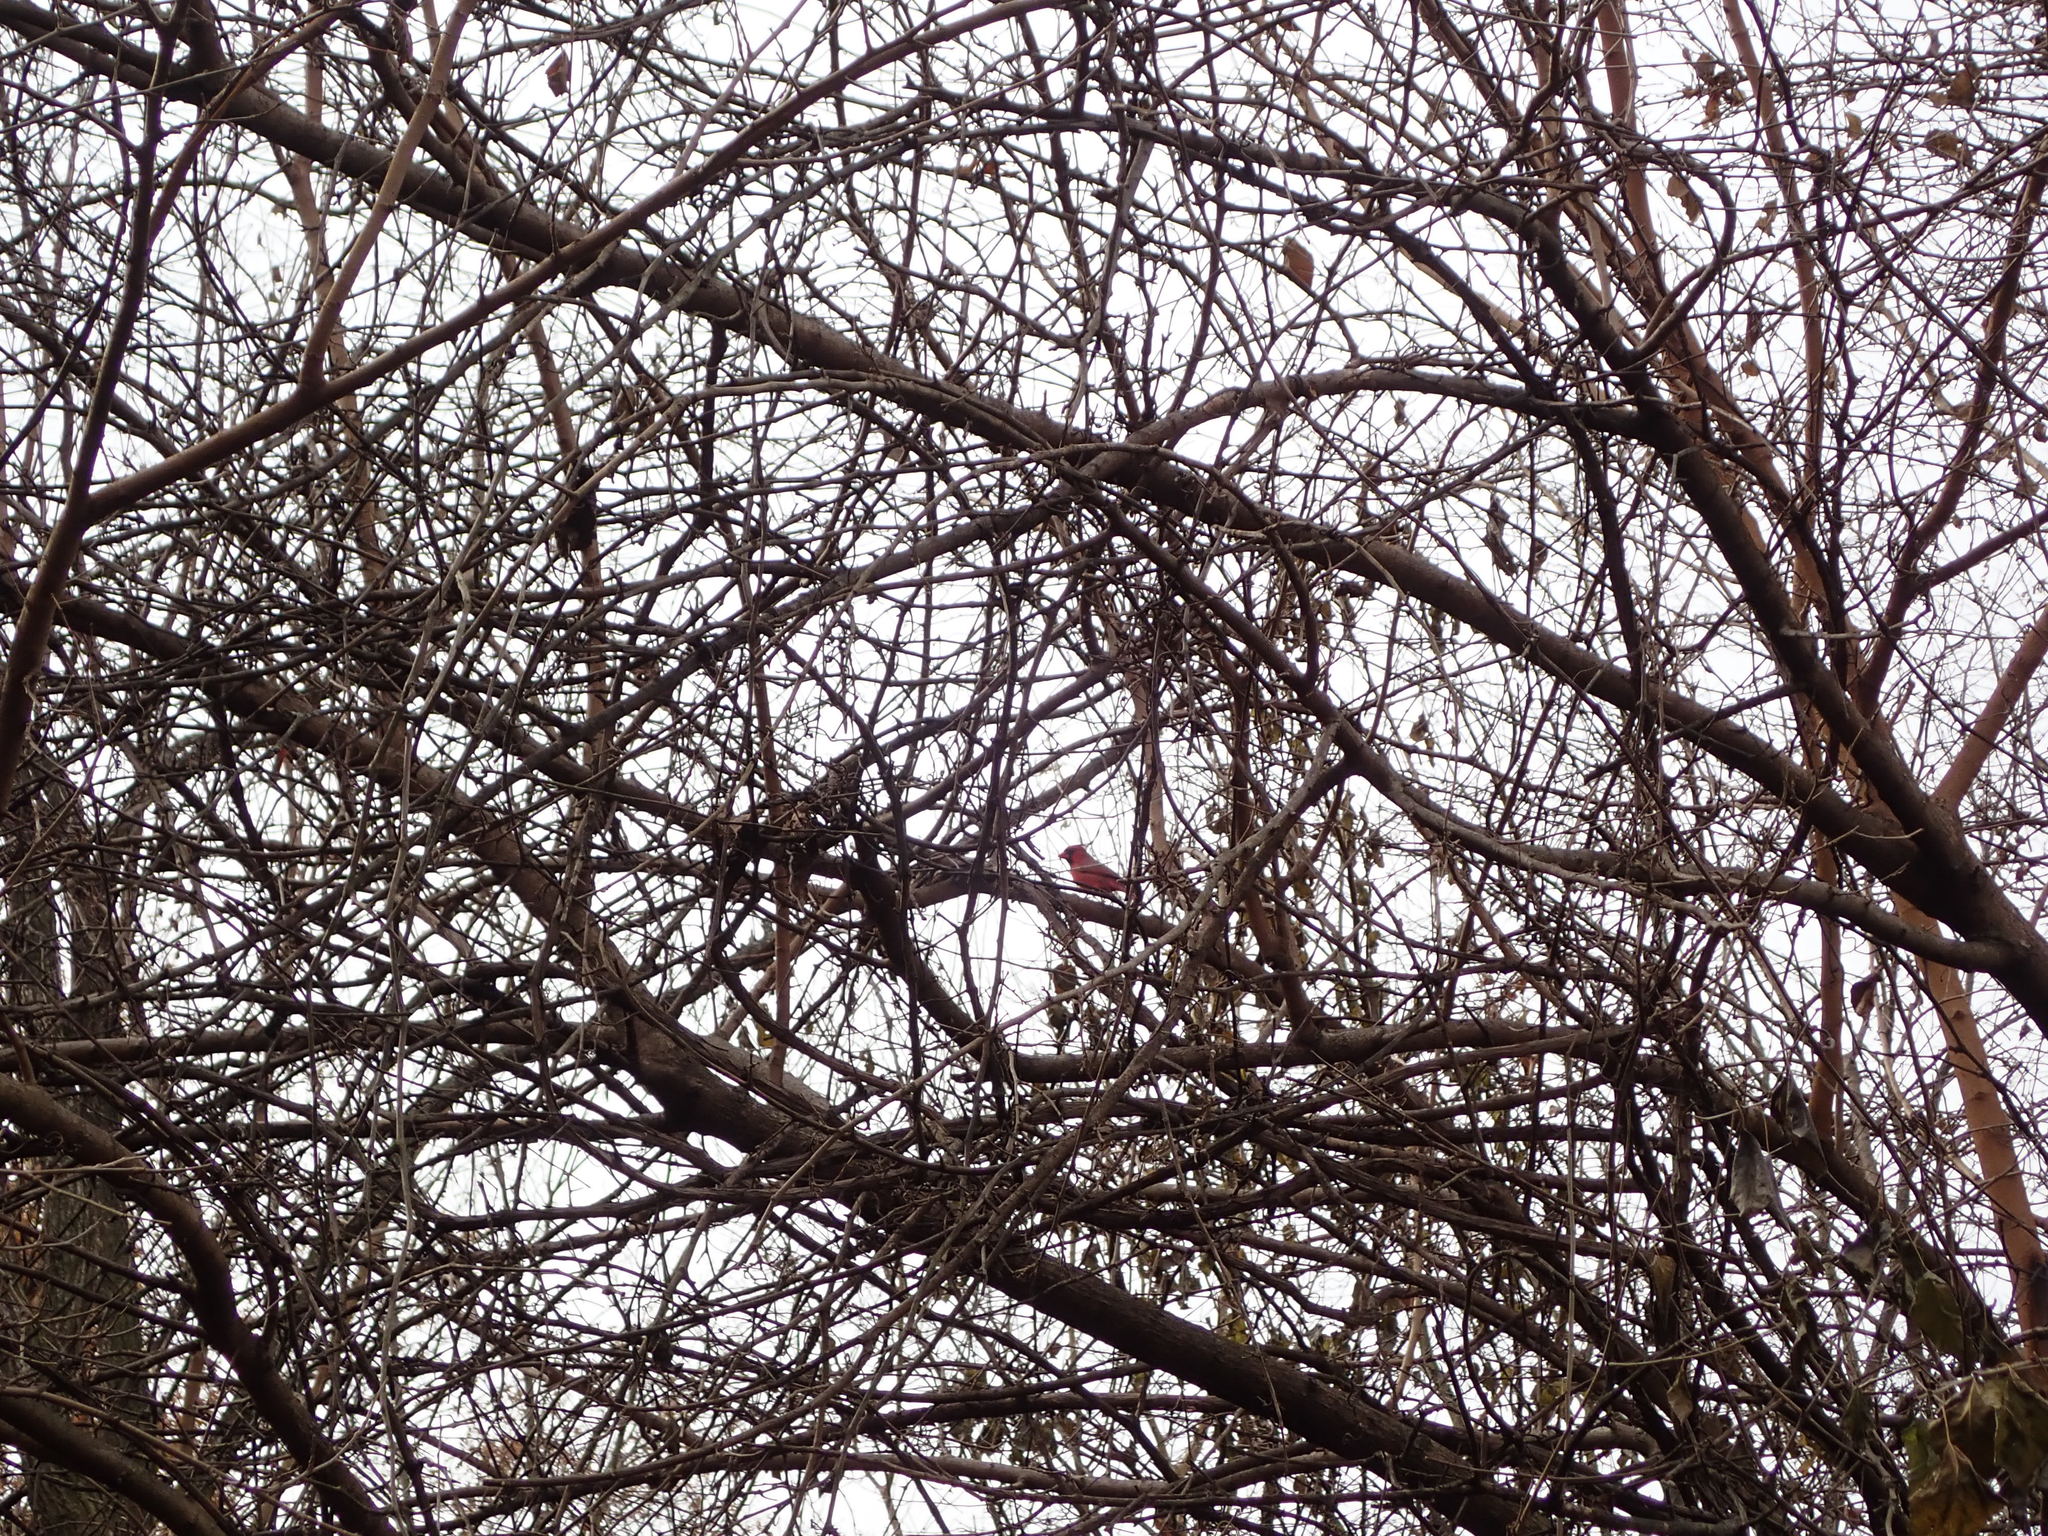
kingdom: Animalia
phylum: Chordata
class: Aves
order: Passeriformes
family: Cardinalidae
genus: Cardinalis
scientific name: Cardinalis cardinalis
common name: Northern cardinal
